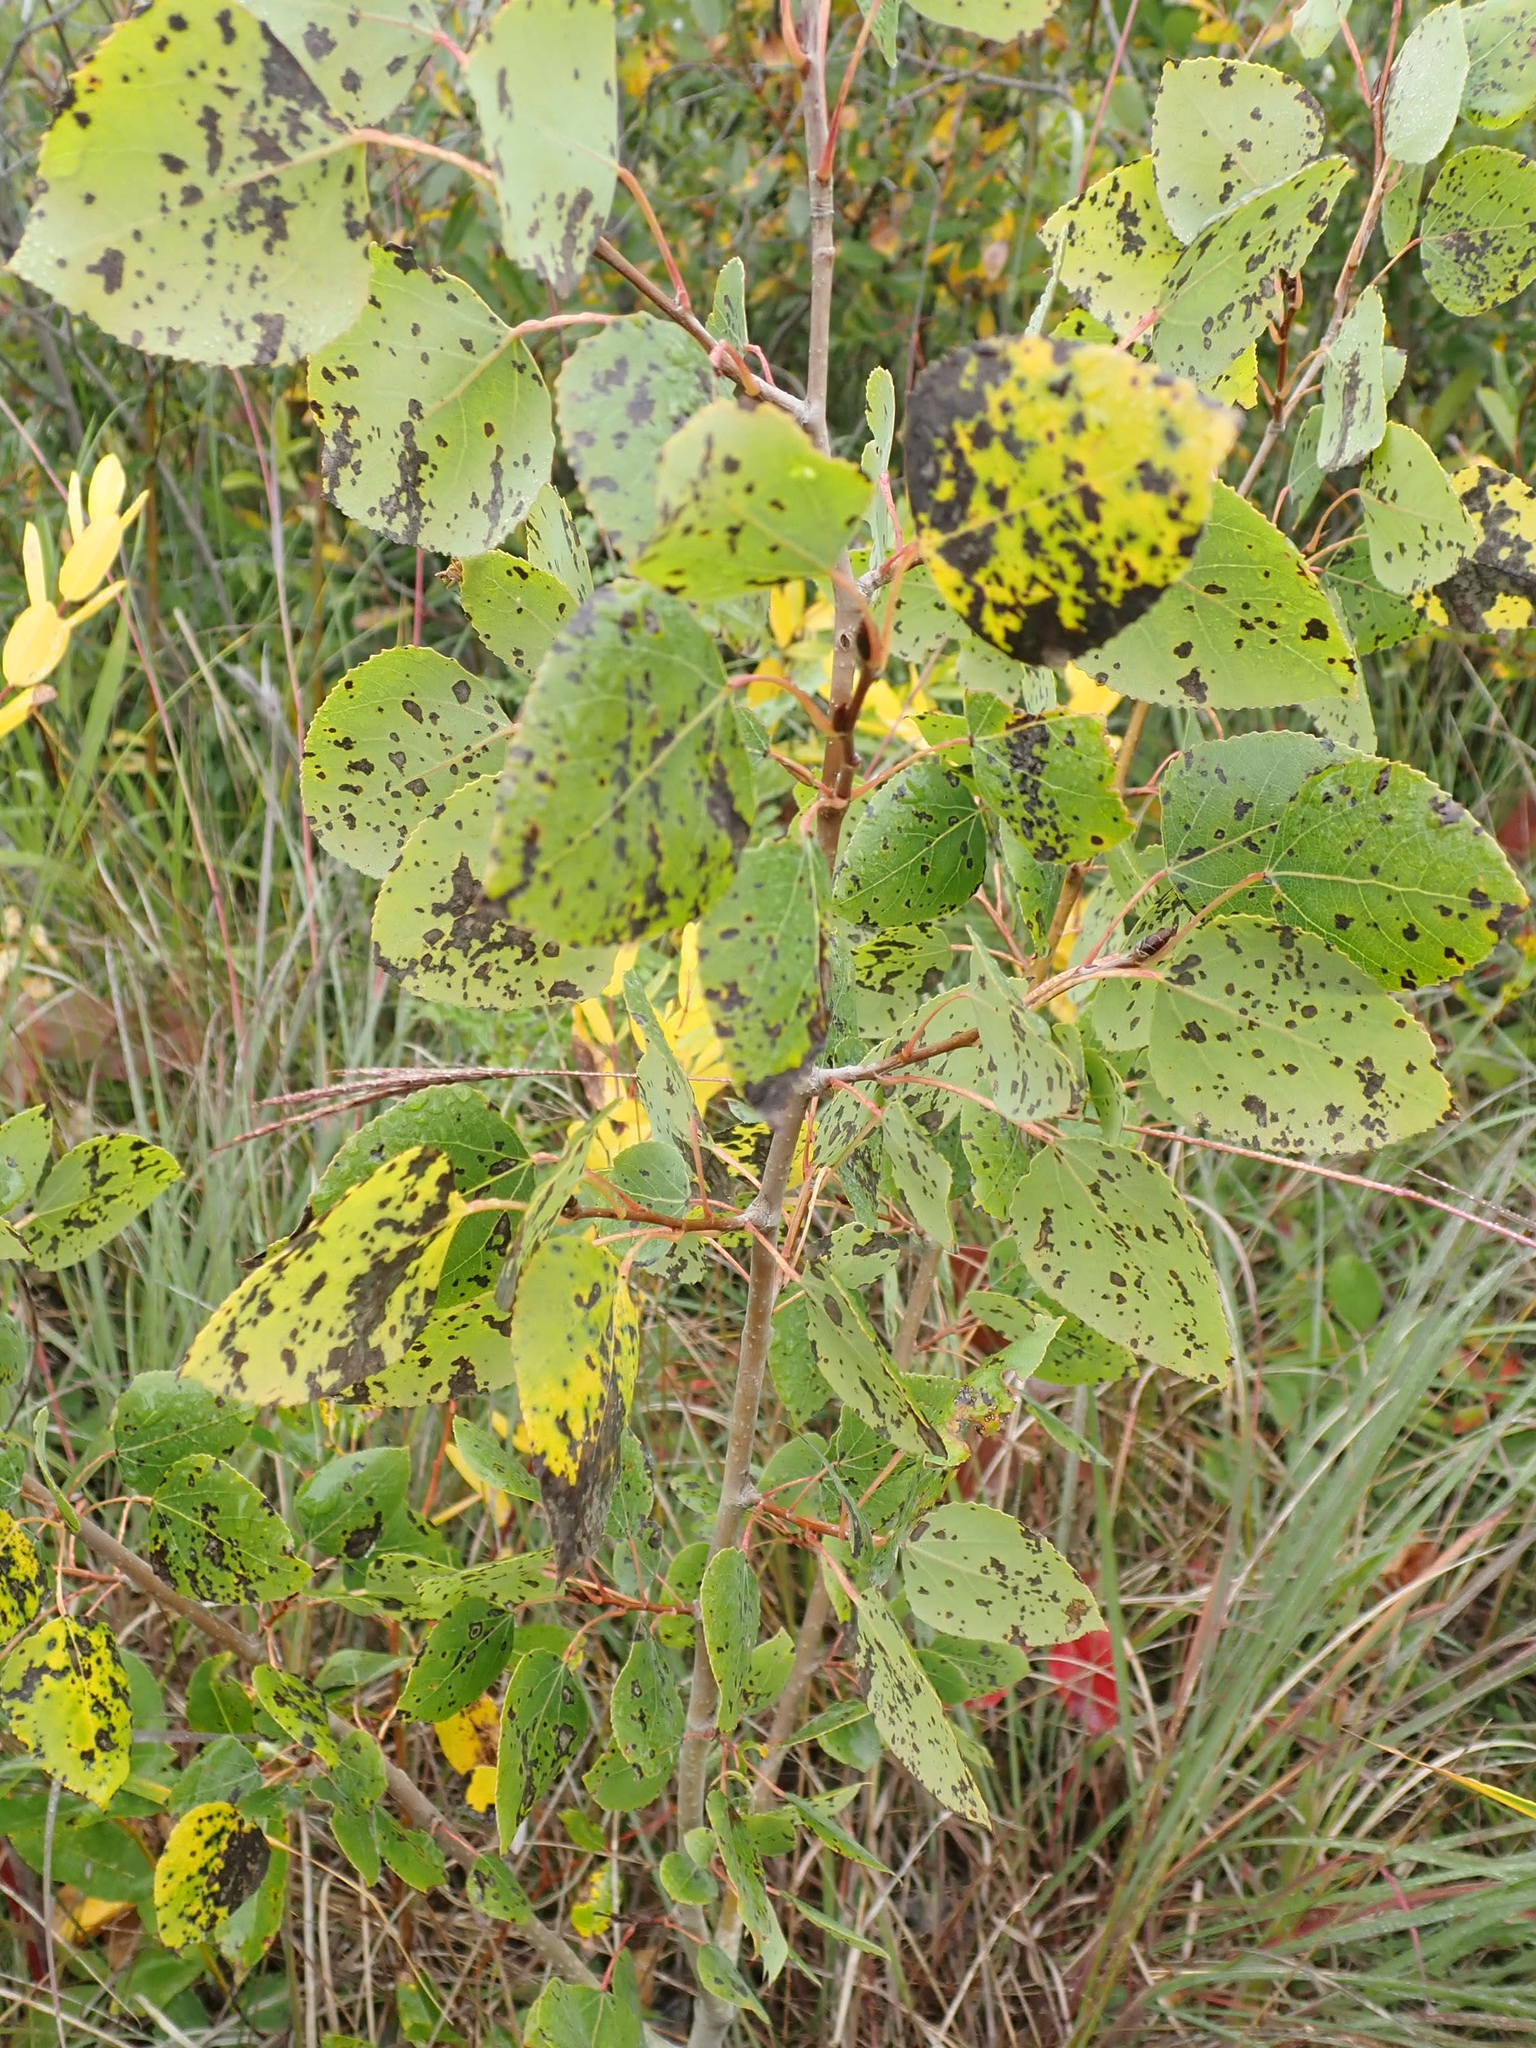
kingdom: Plantae
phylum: Tracheophyta
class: Magnoliopsida
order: Malpighiales
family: Salicaceae
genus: Populus
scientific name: Populus tremuloides
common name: Quaking aspen
